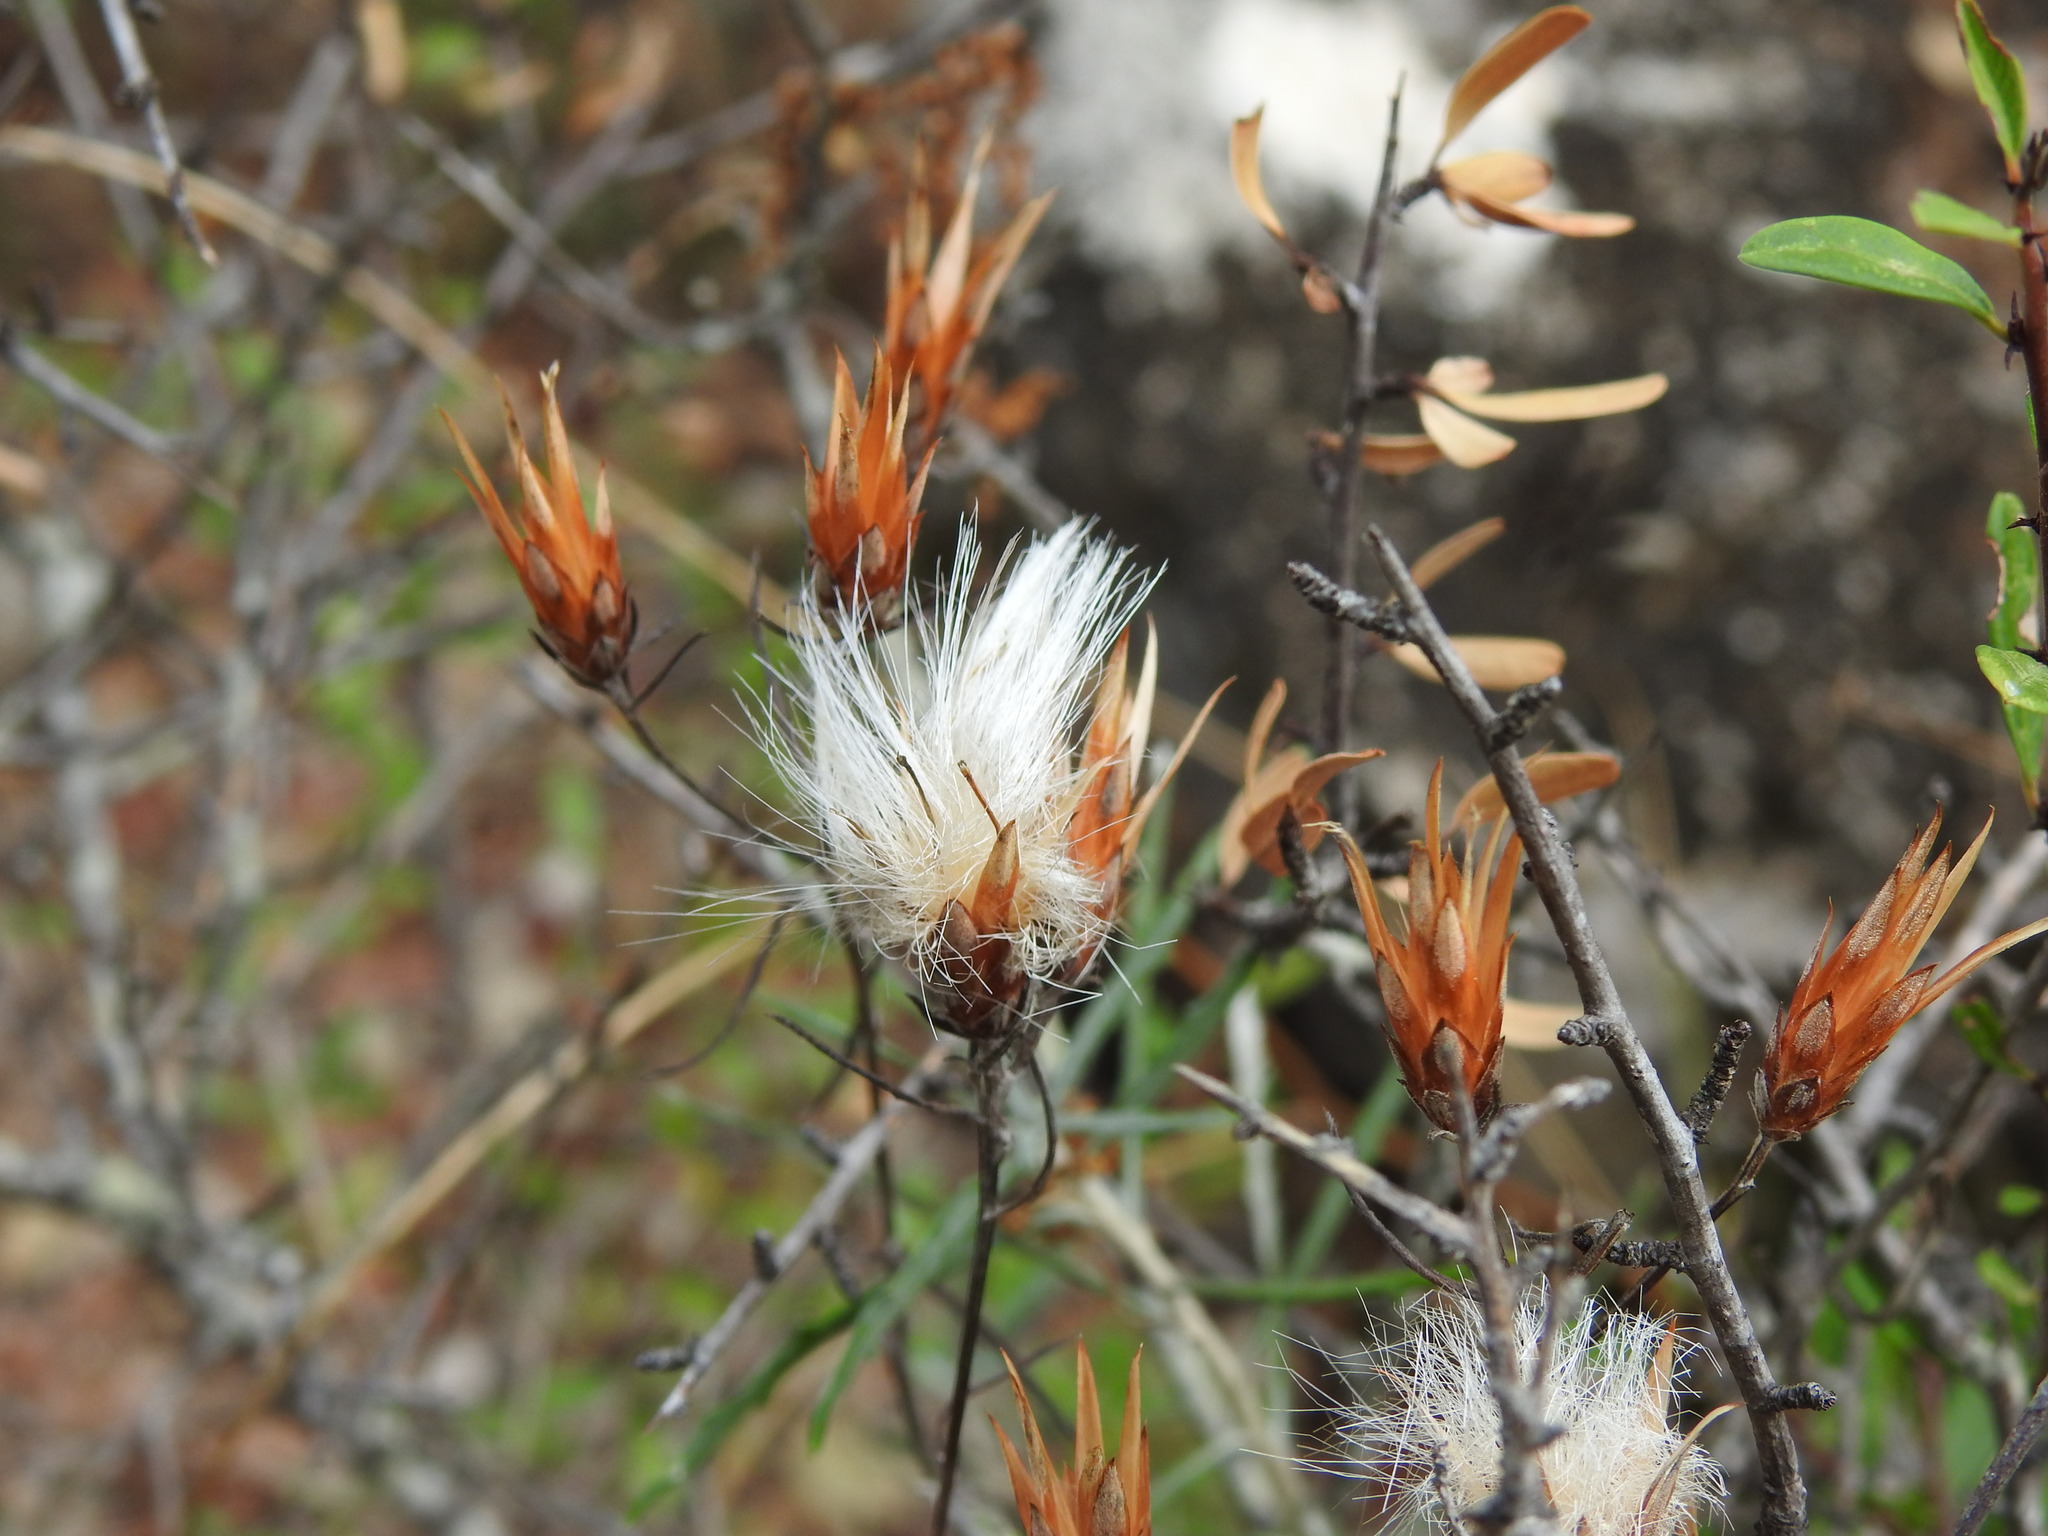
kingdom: Plantae
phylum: Tracheophyta
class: Magnoliopsida
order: Asterales
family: Asteraceae
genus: Staehelina
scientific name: Staehelina dubia
